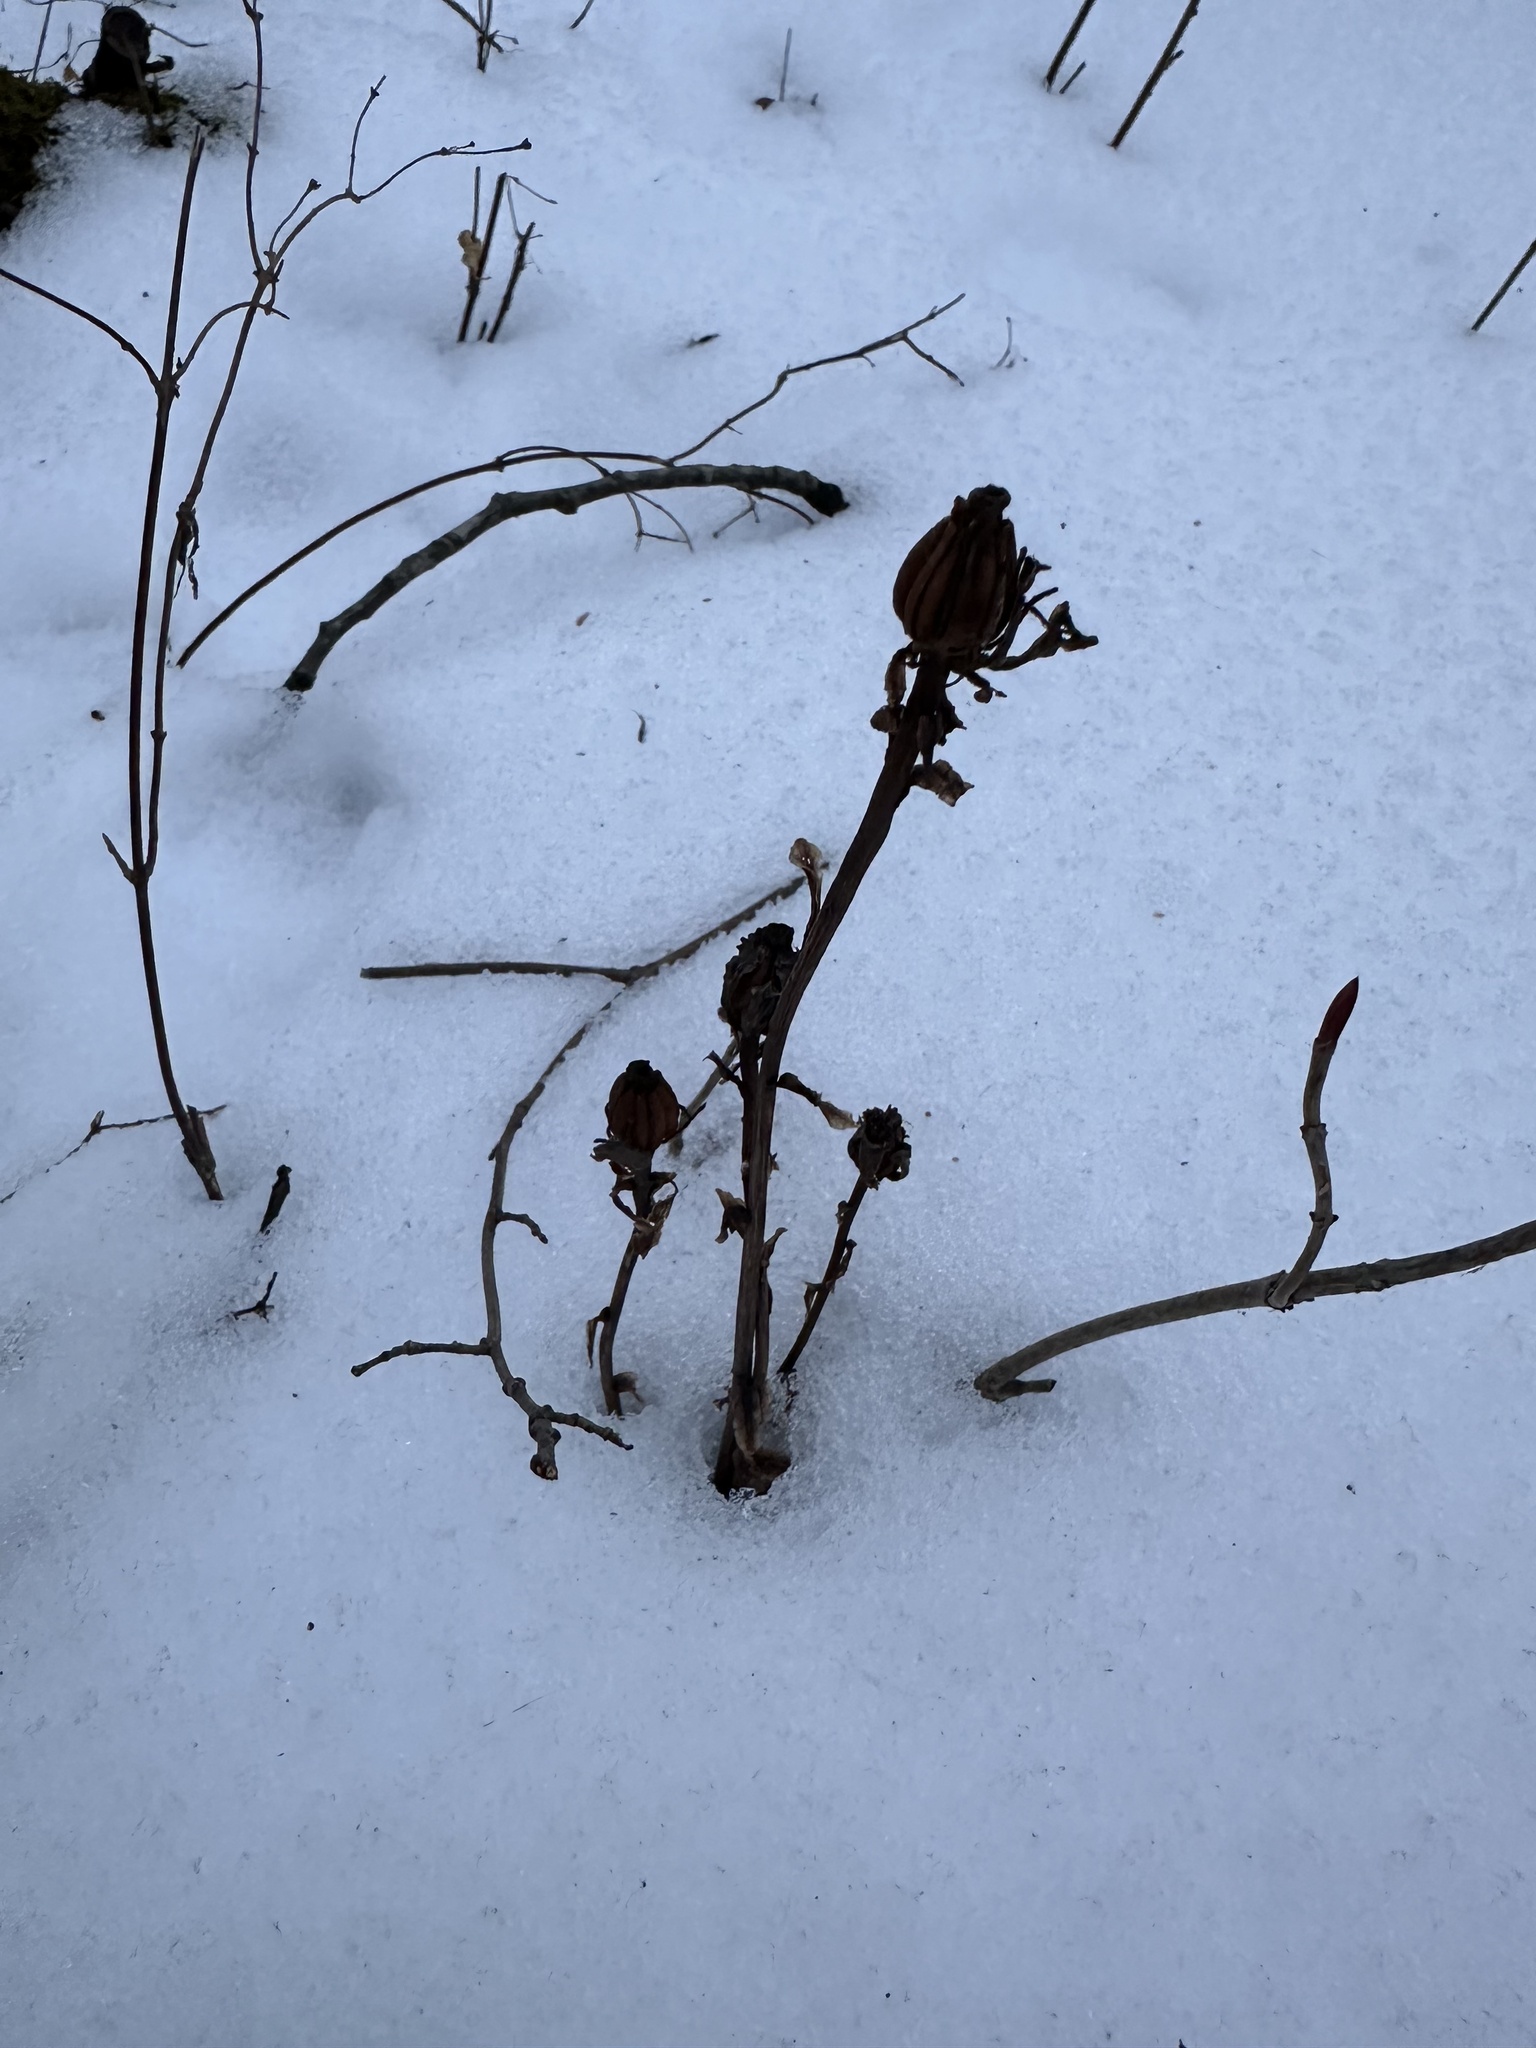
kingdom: Plantae
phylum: Tracheophyta
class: Magnoliopsida
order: Ericales
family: Ericaceae
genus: Monotropa
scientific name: Monotropa uniflora
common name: Convulsion root
